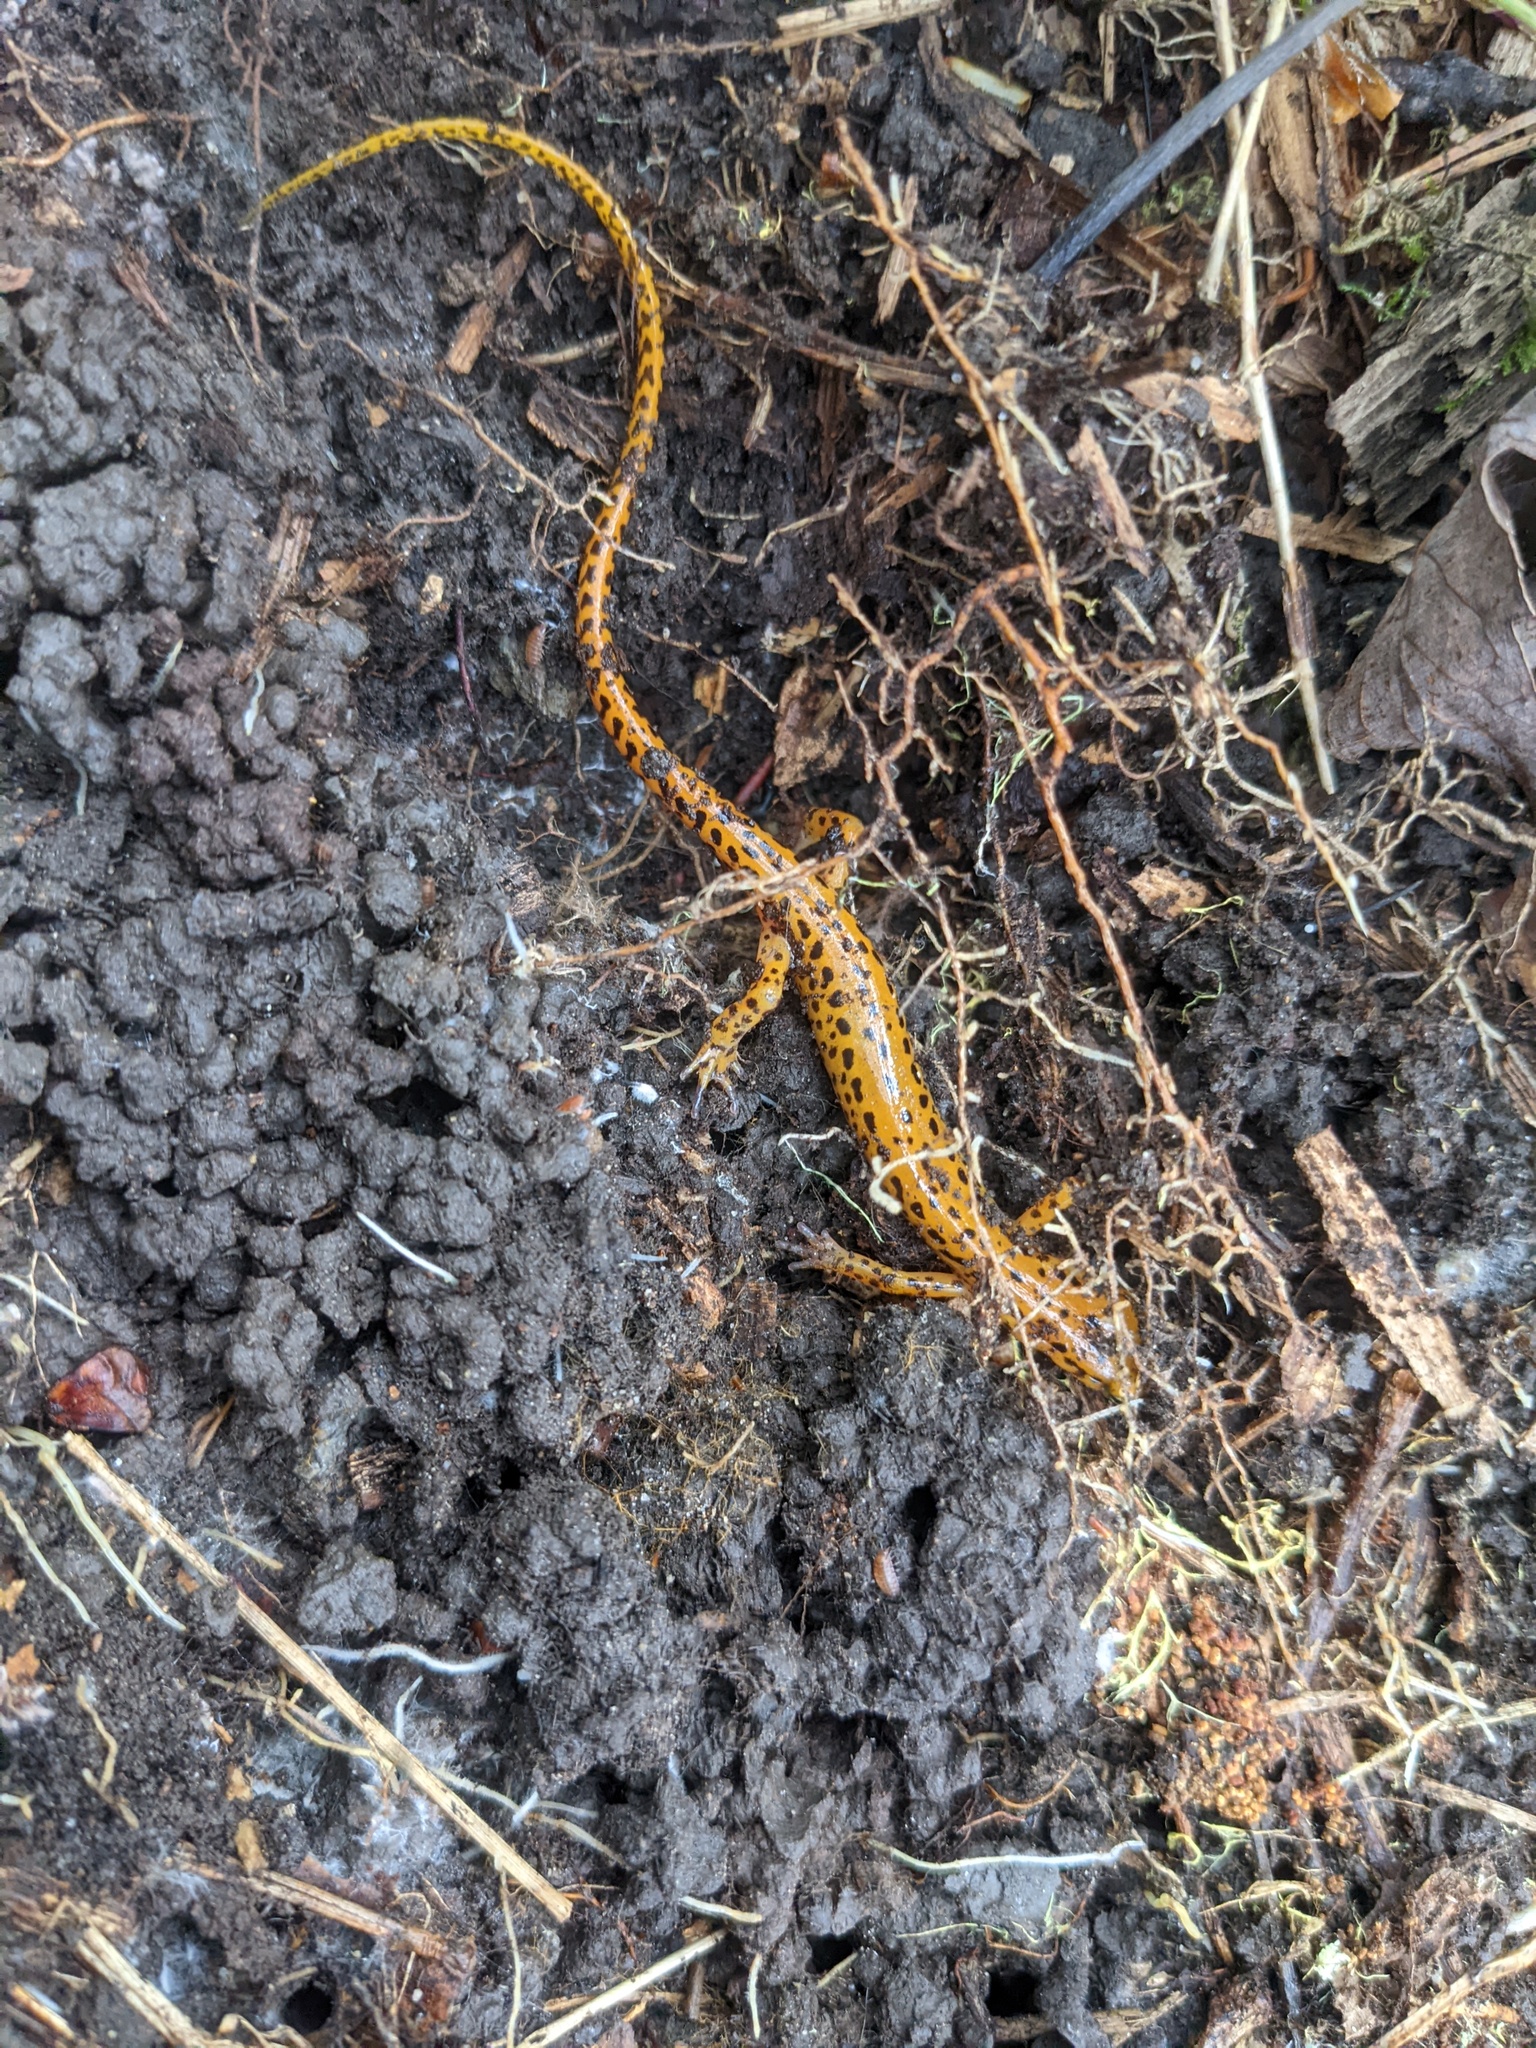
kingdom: Animalia
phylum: Chordata
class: Amphibia
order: Caudata
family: Plethodontidae
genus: Eurycea
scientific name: Eurycea longicauda
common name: Long-tailed salamander
